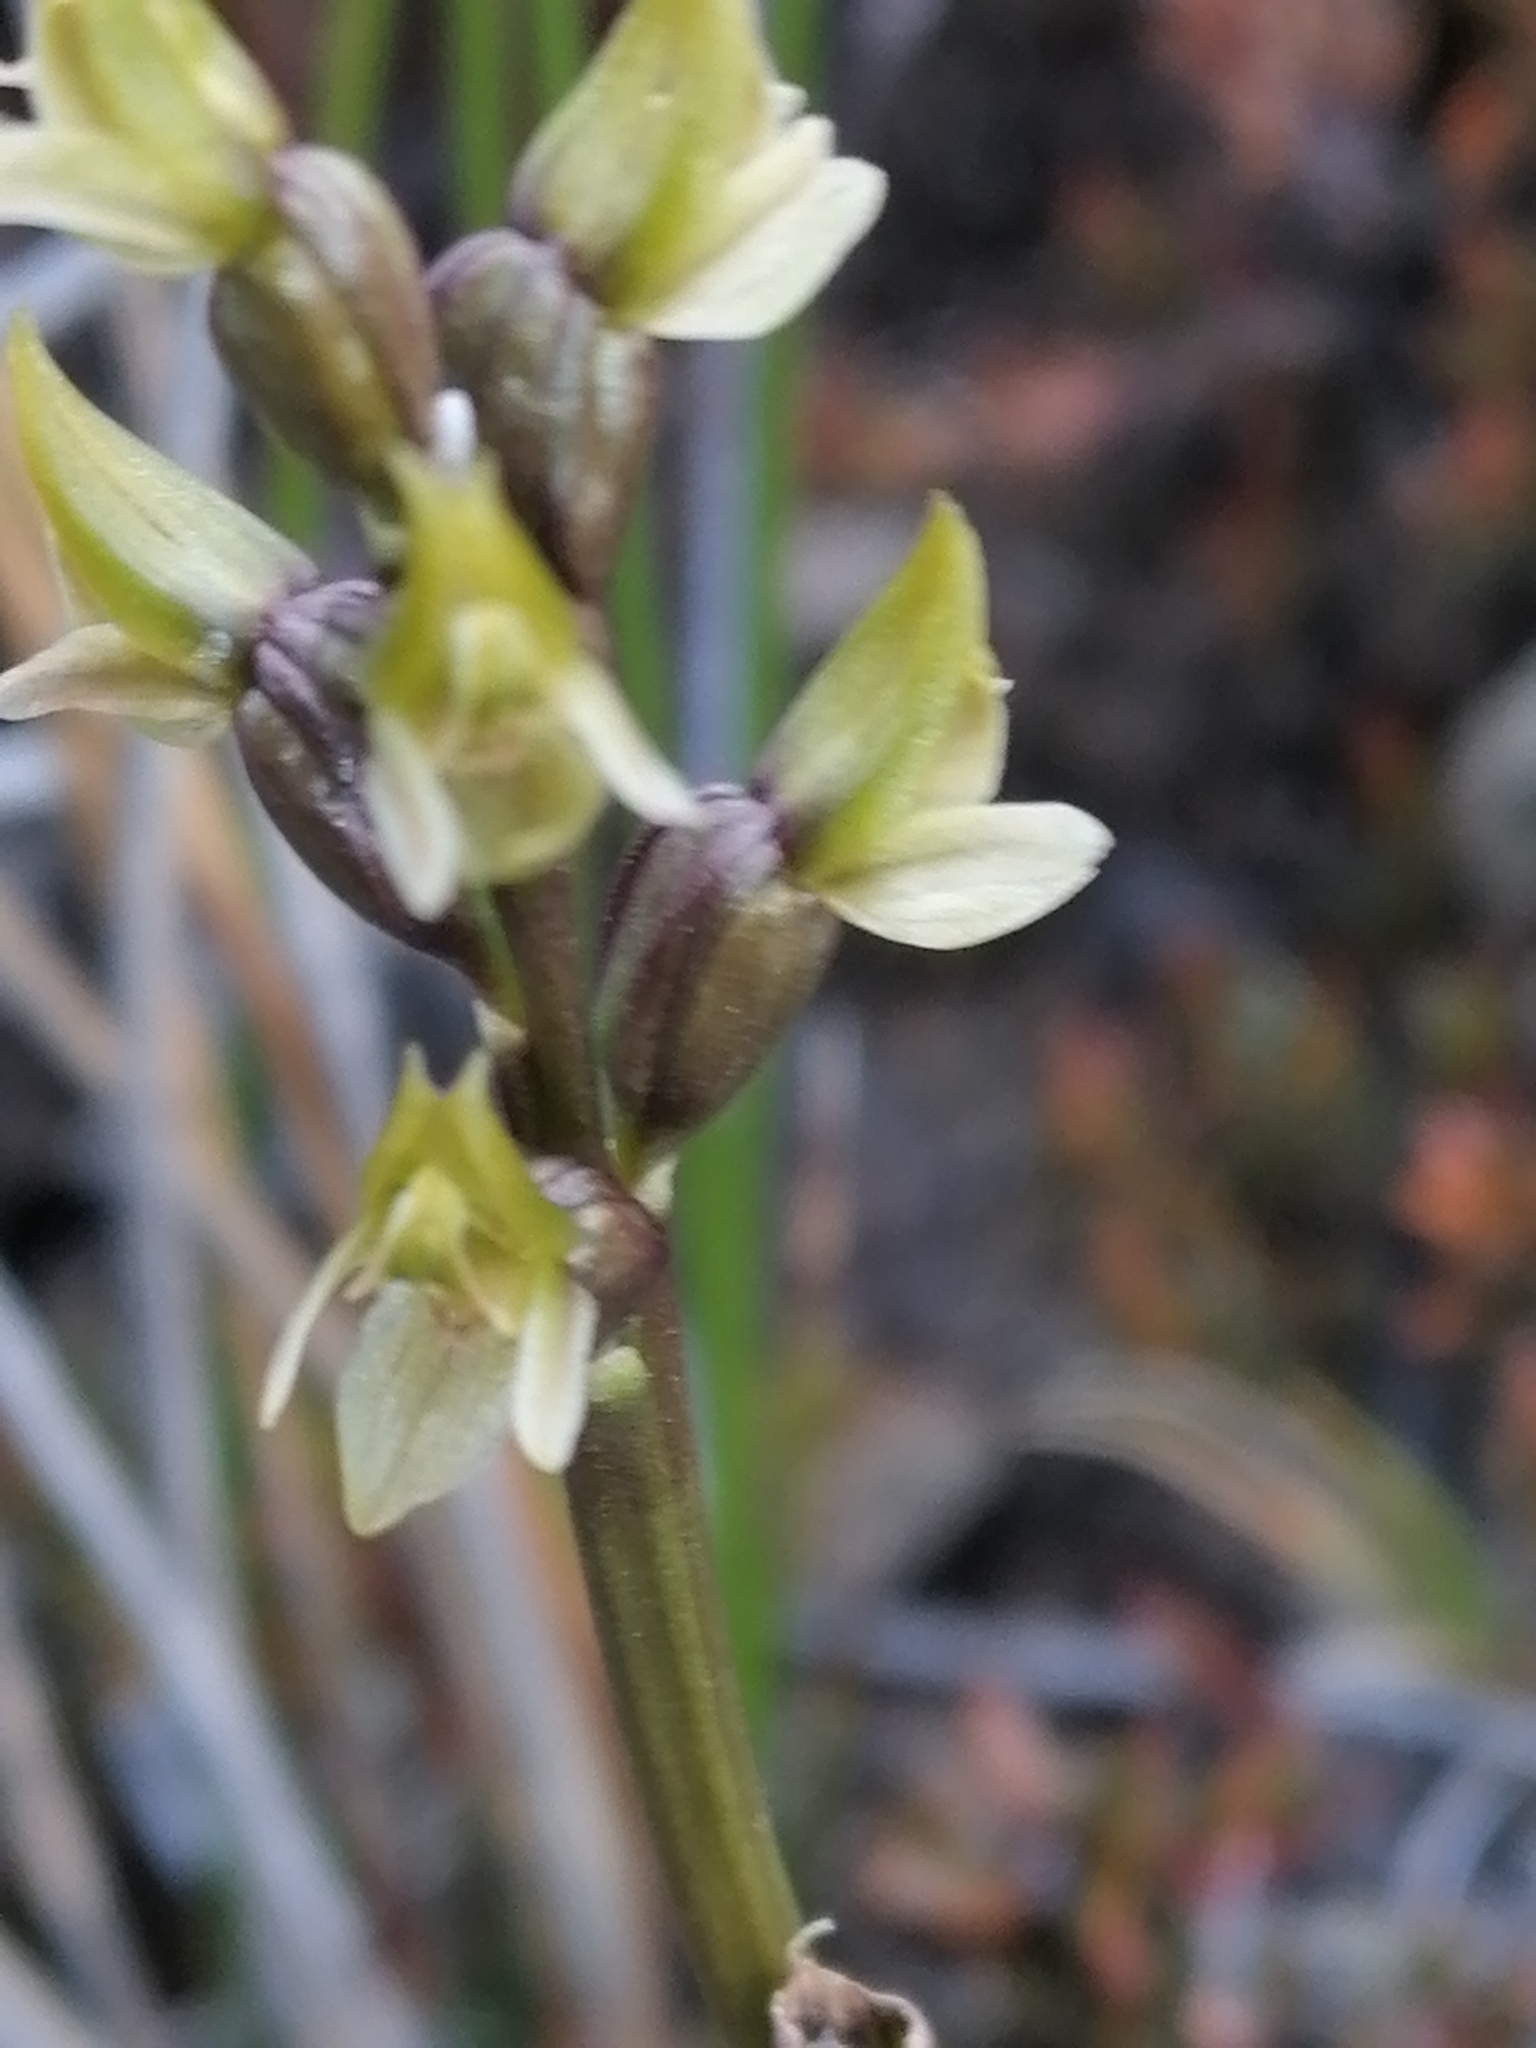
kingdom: Plantae
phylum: Tracheophyta
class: Liliopsida
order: Asparagales
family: Orchidaceae
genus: Prasophyllum
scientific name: Prasophyllum colensoi
